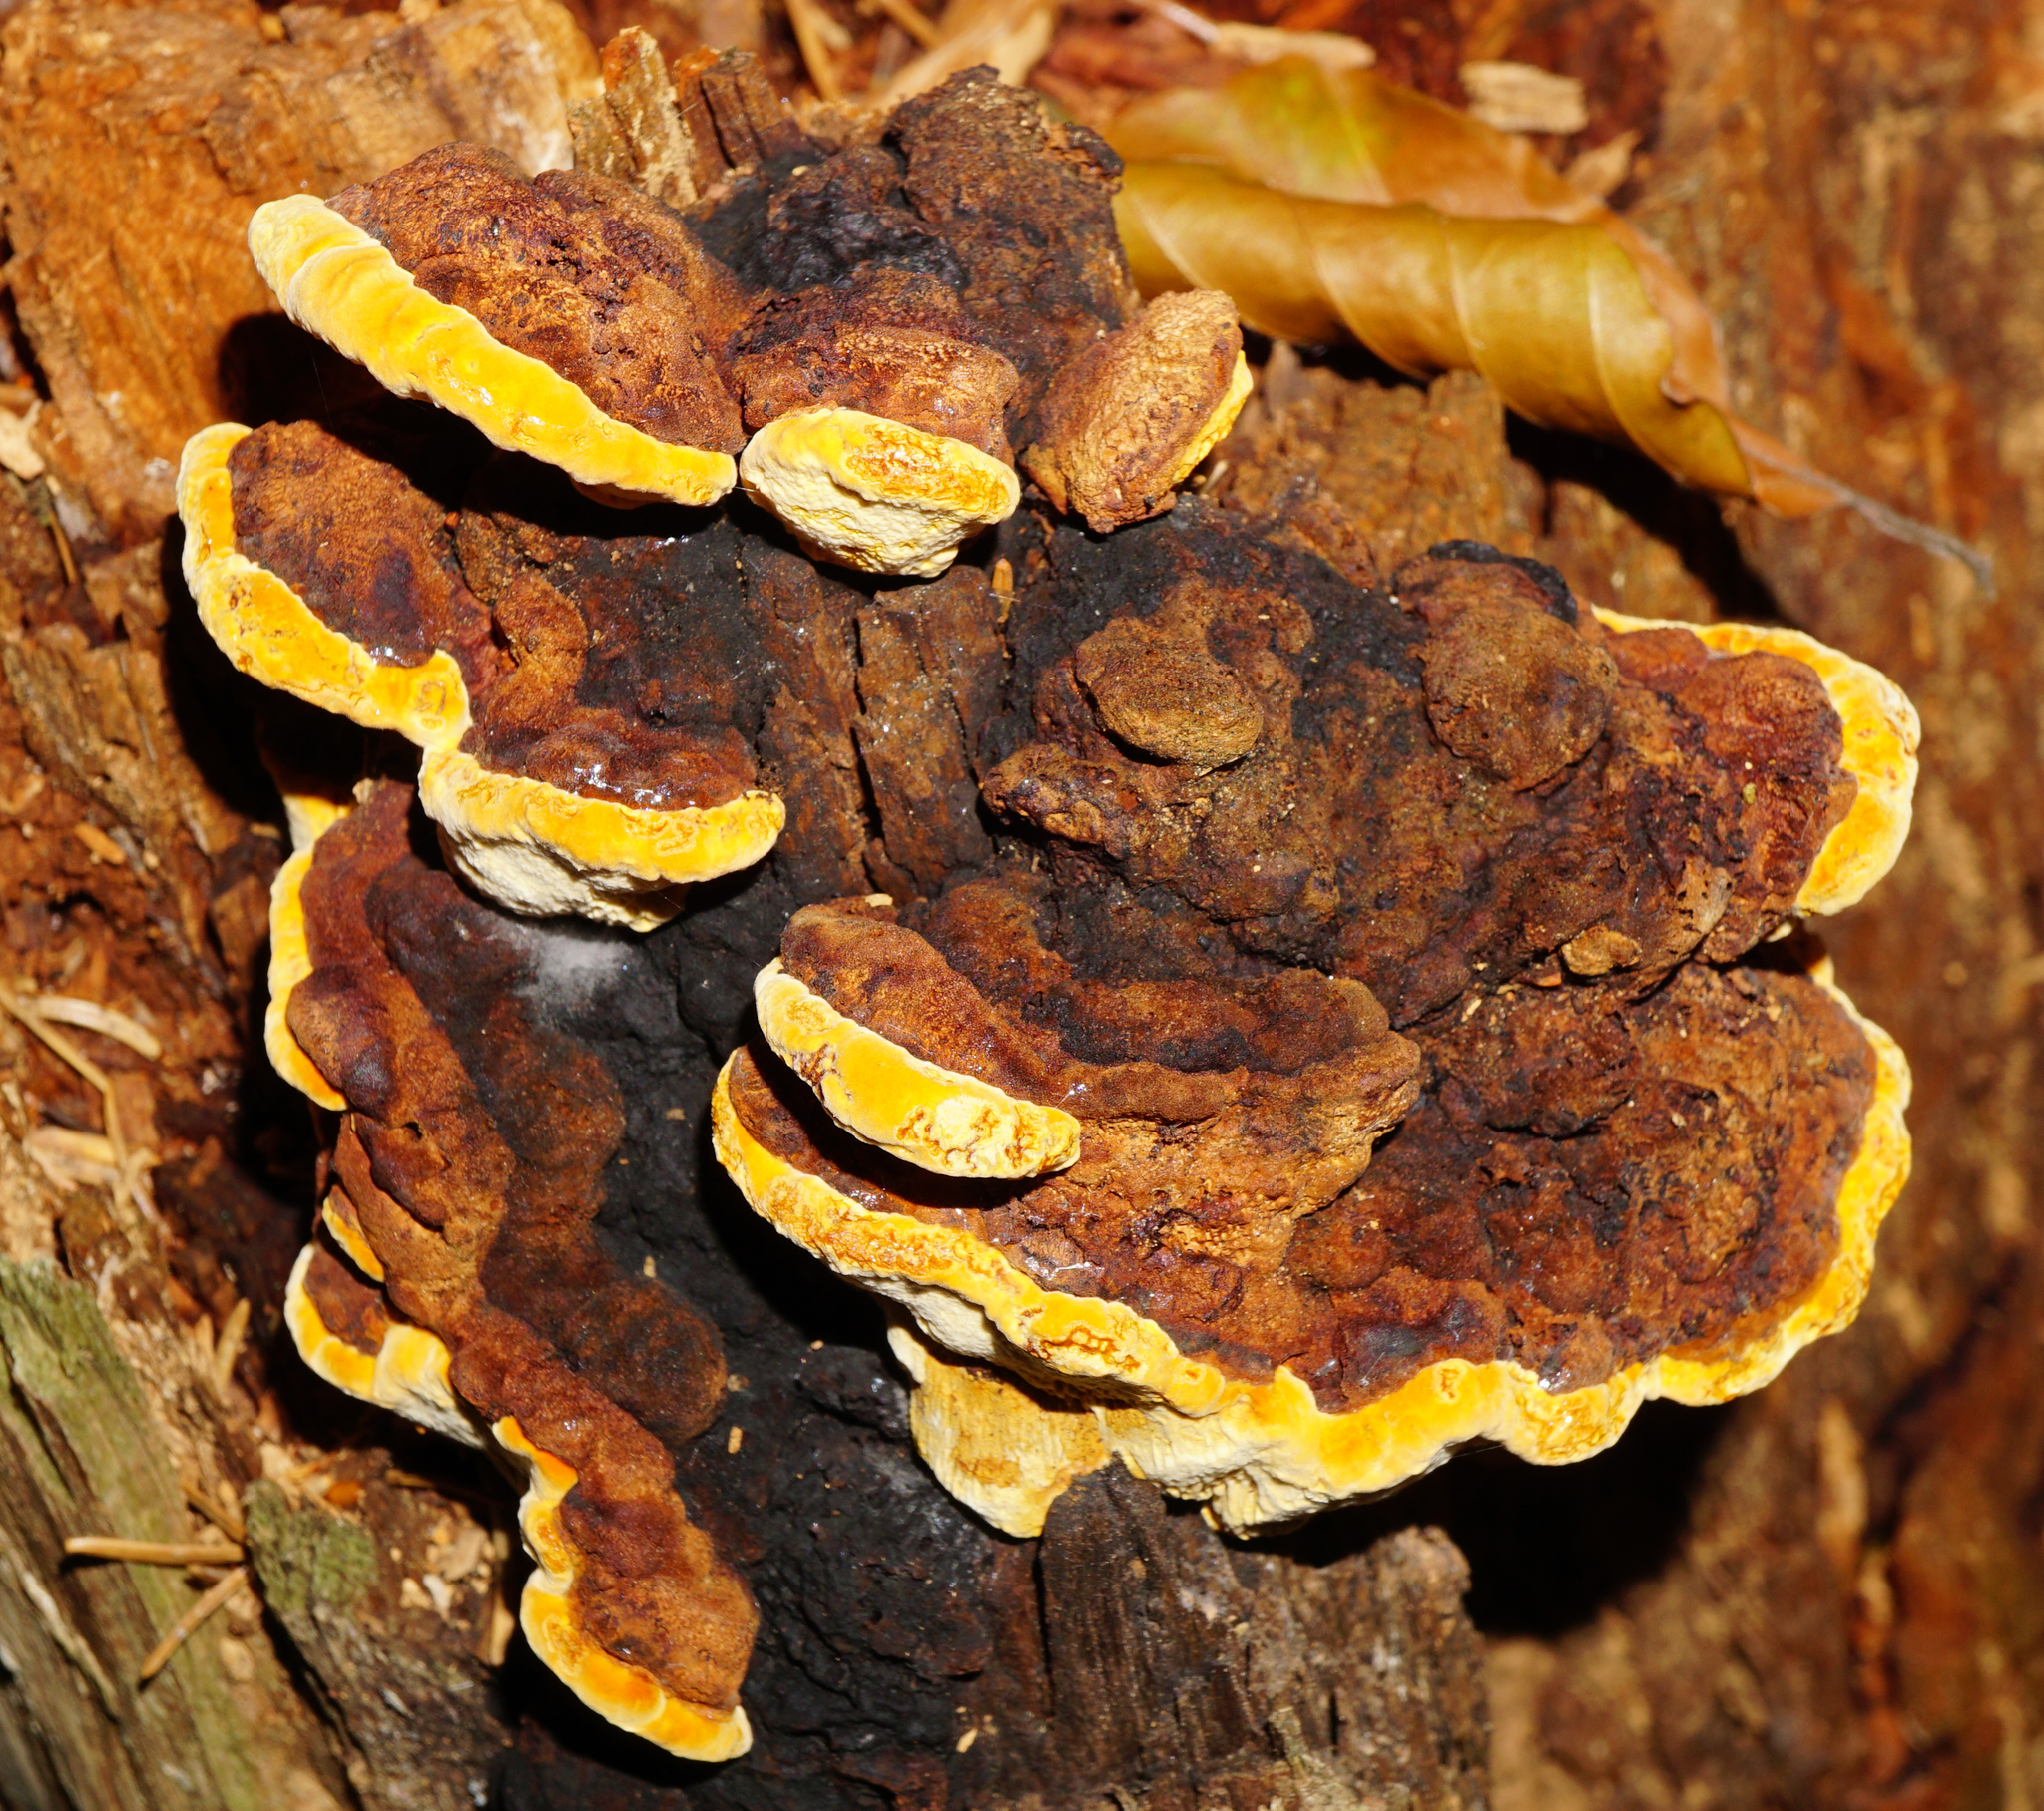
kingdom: Fungi
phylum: Basidiomycota
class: Agaricomycetes
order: Gloeophyllales
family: Gloeophyllaceae
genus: Gloeophyllum
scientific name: Gloeophyllum odoratum
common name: Anise mazegill
